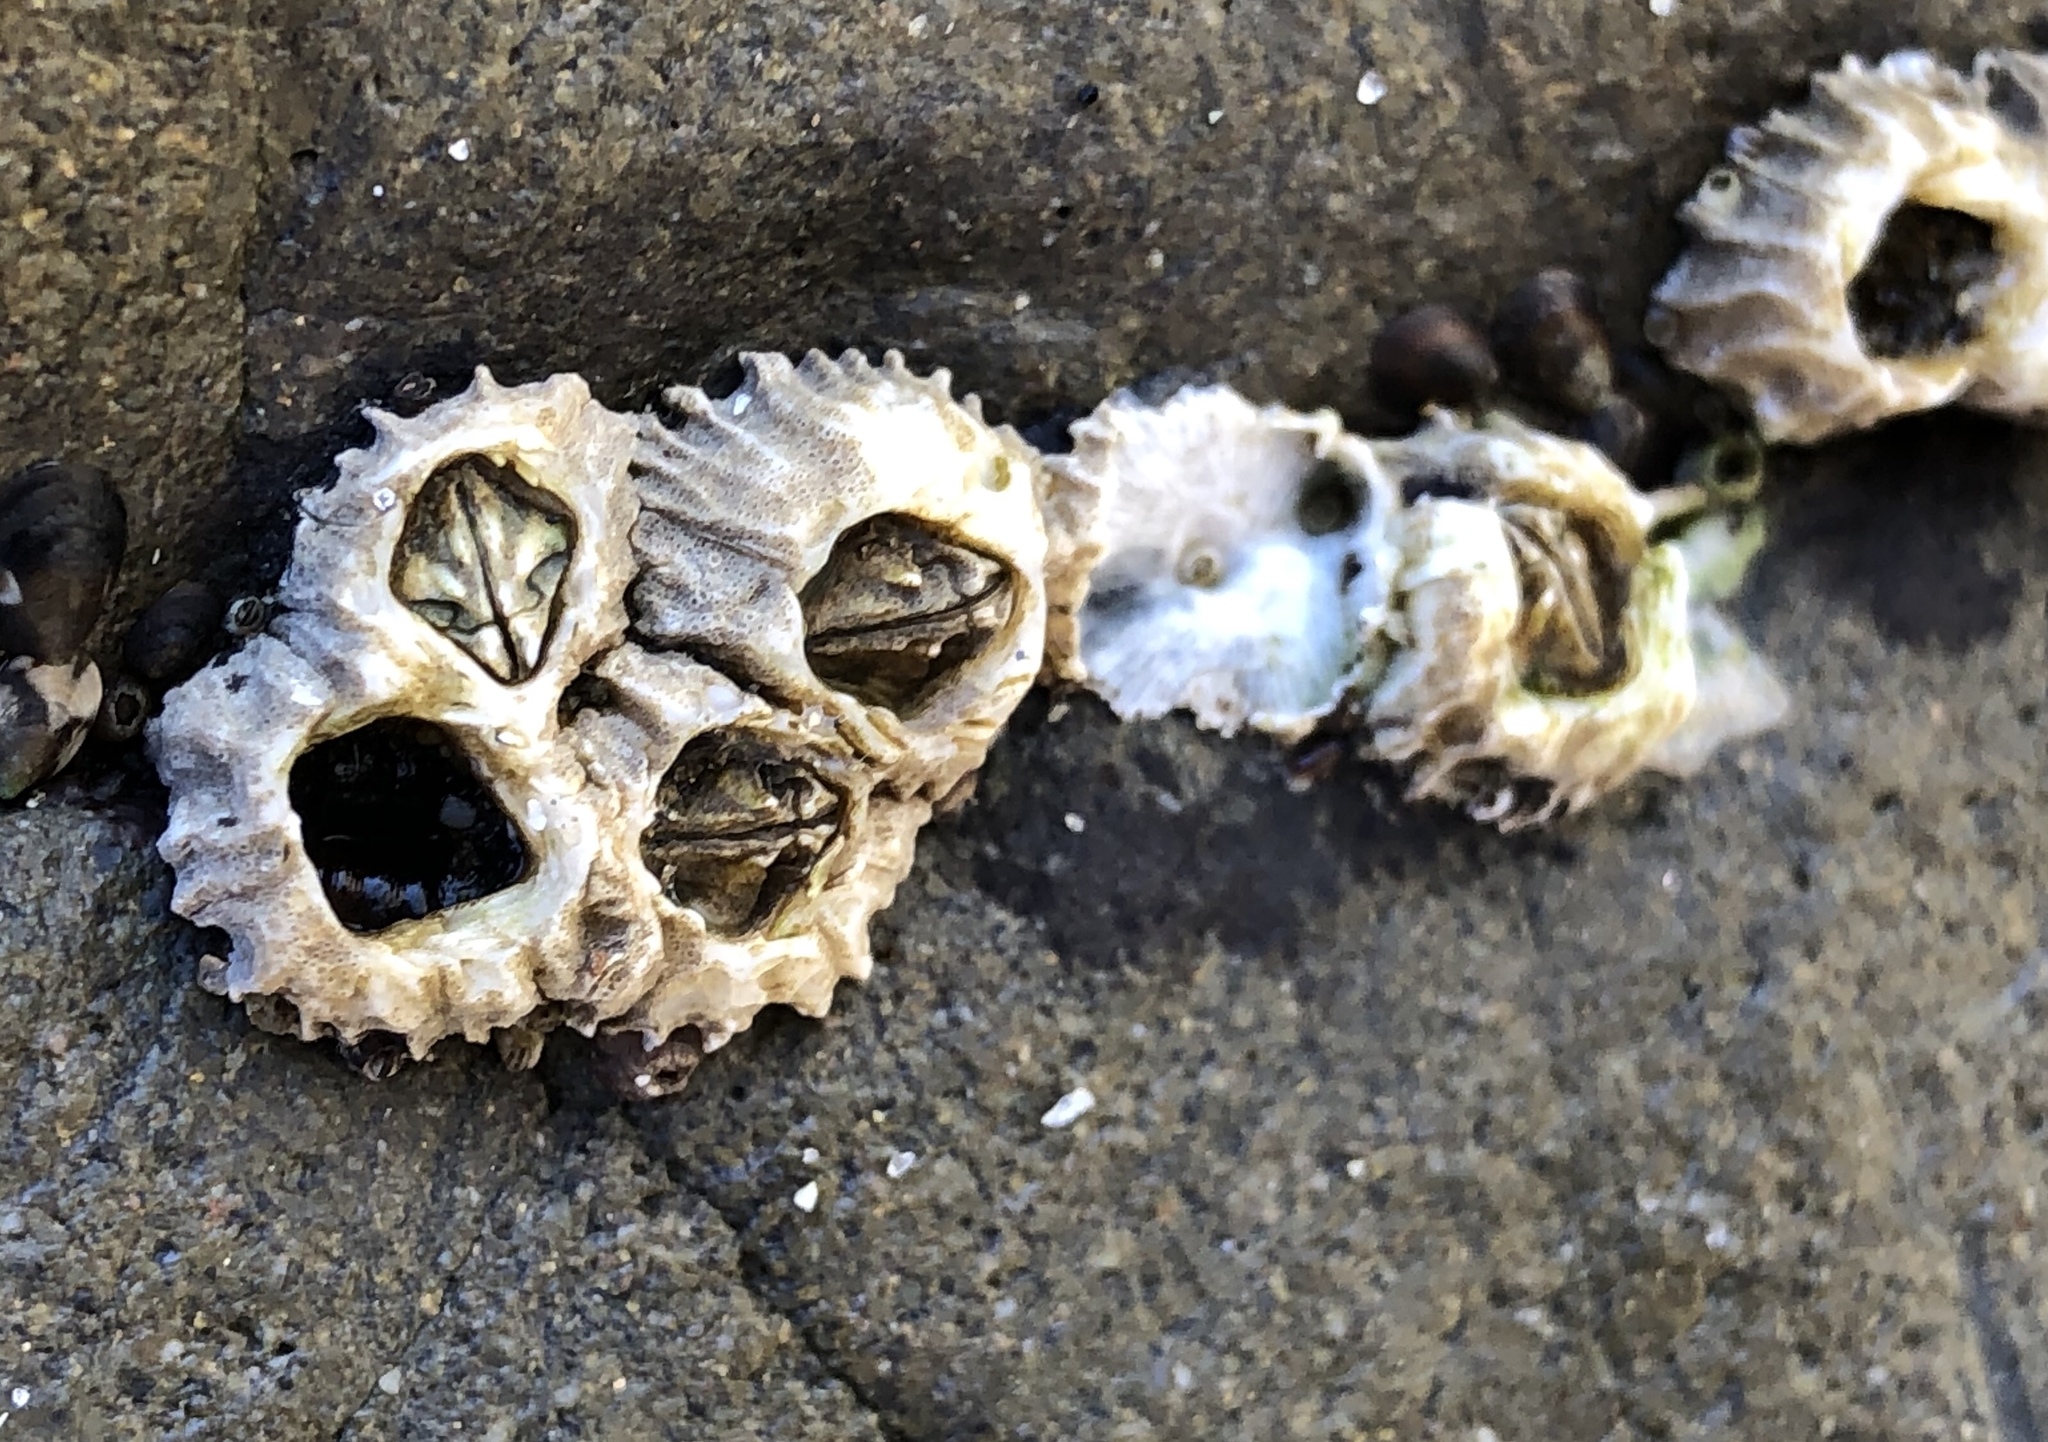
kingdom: Animalia
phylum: Arthropoda
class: Maxillopoda
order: Sessilia
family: Balanidae
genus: Balanus
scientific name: Balanus glandula
